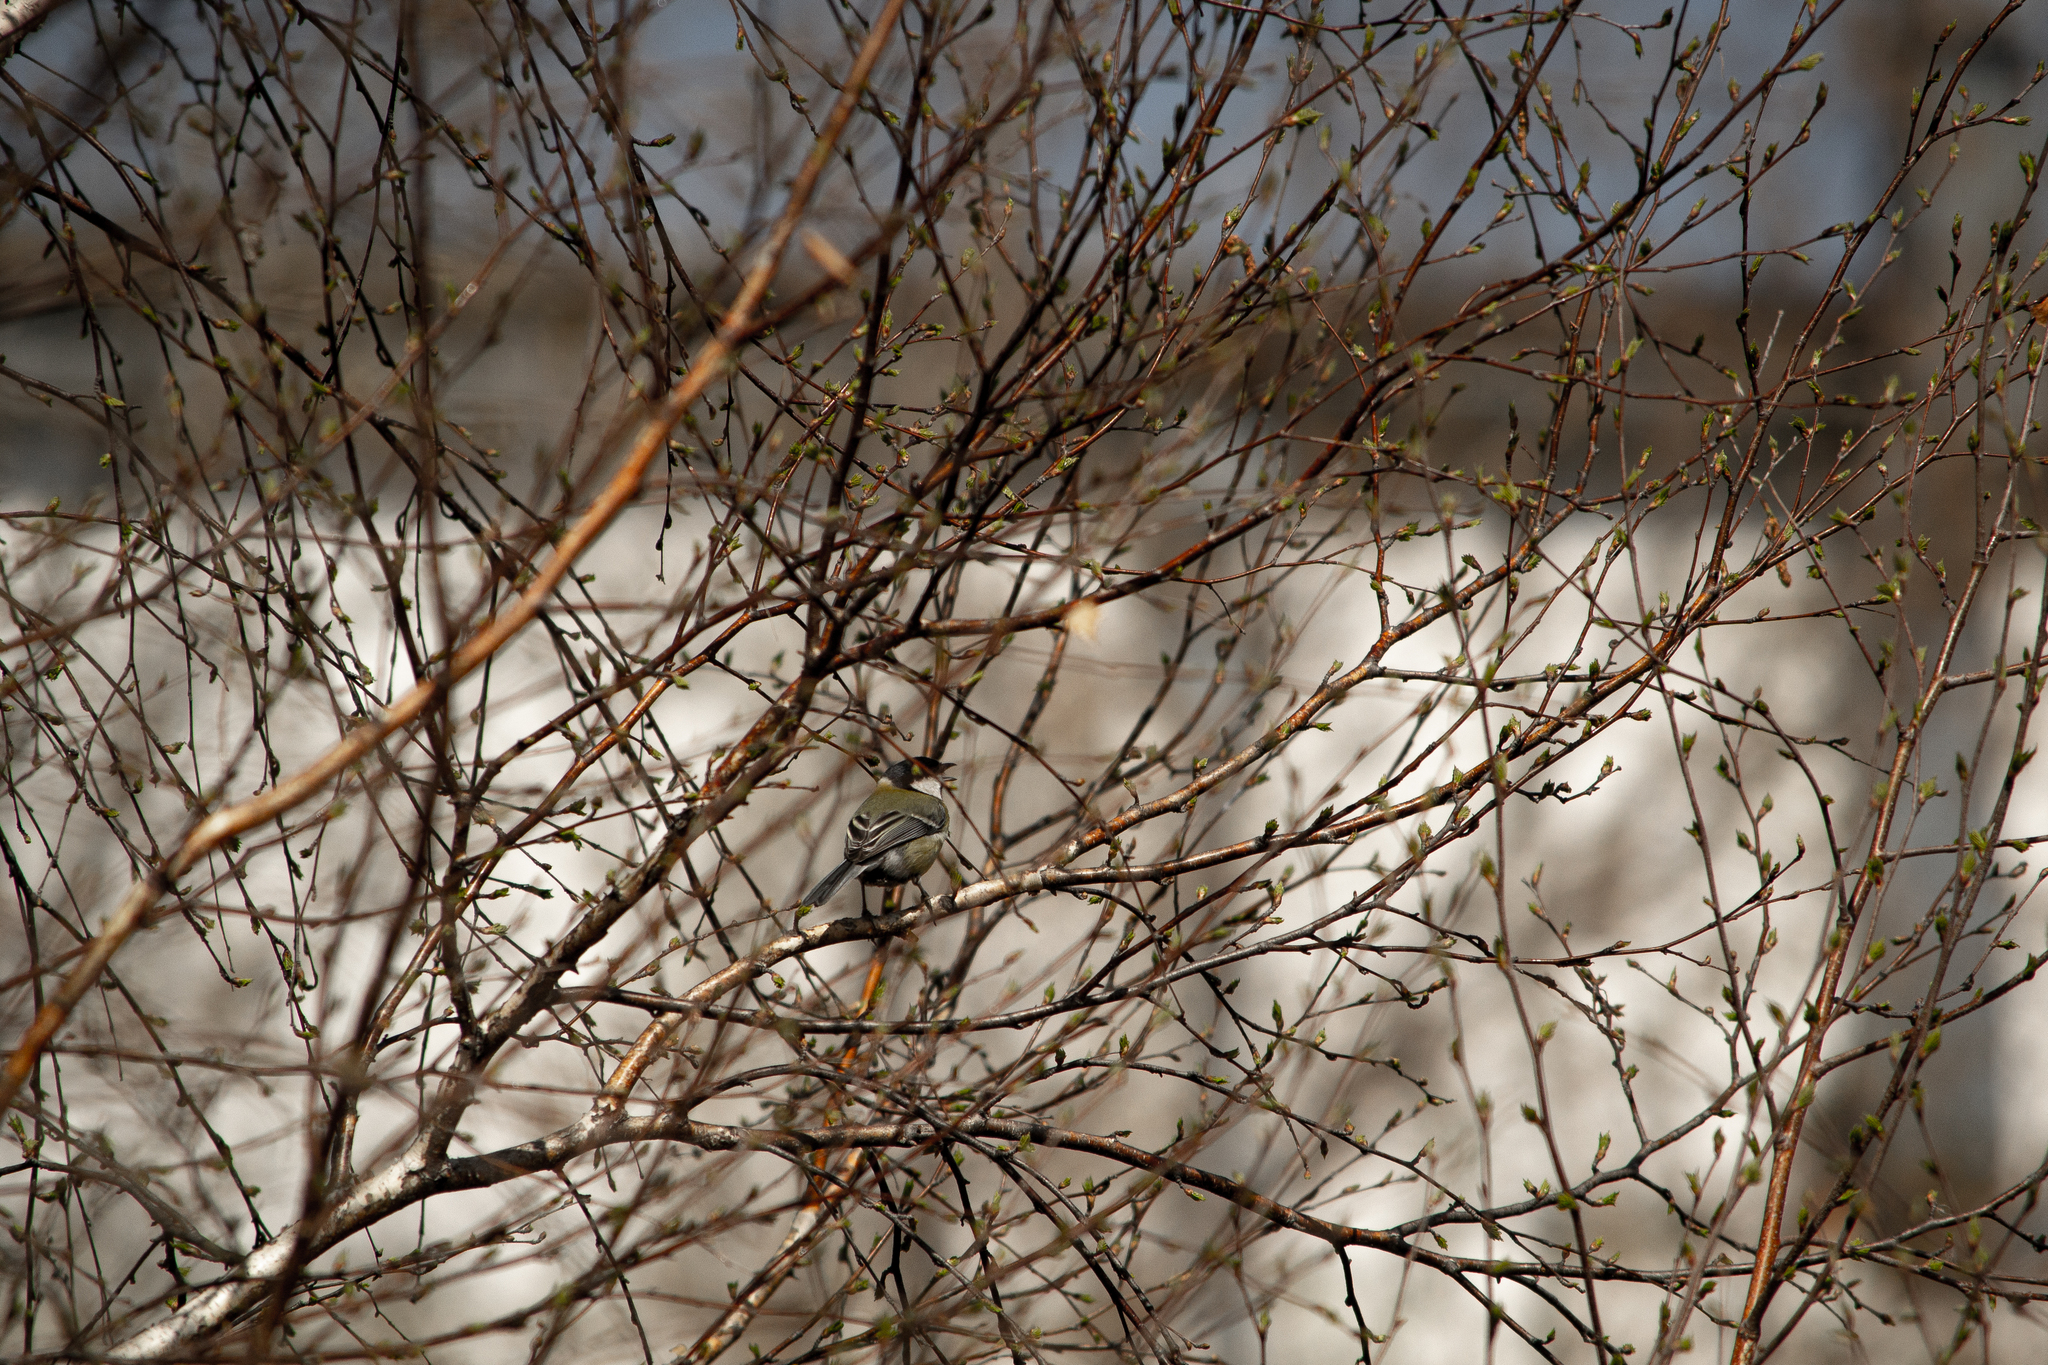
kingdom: Animalia
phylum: Chordata
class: Aves
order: Passeriformes
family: Paridae
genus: Parus
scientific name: Parus major
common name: Great tit
